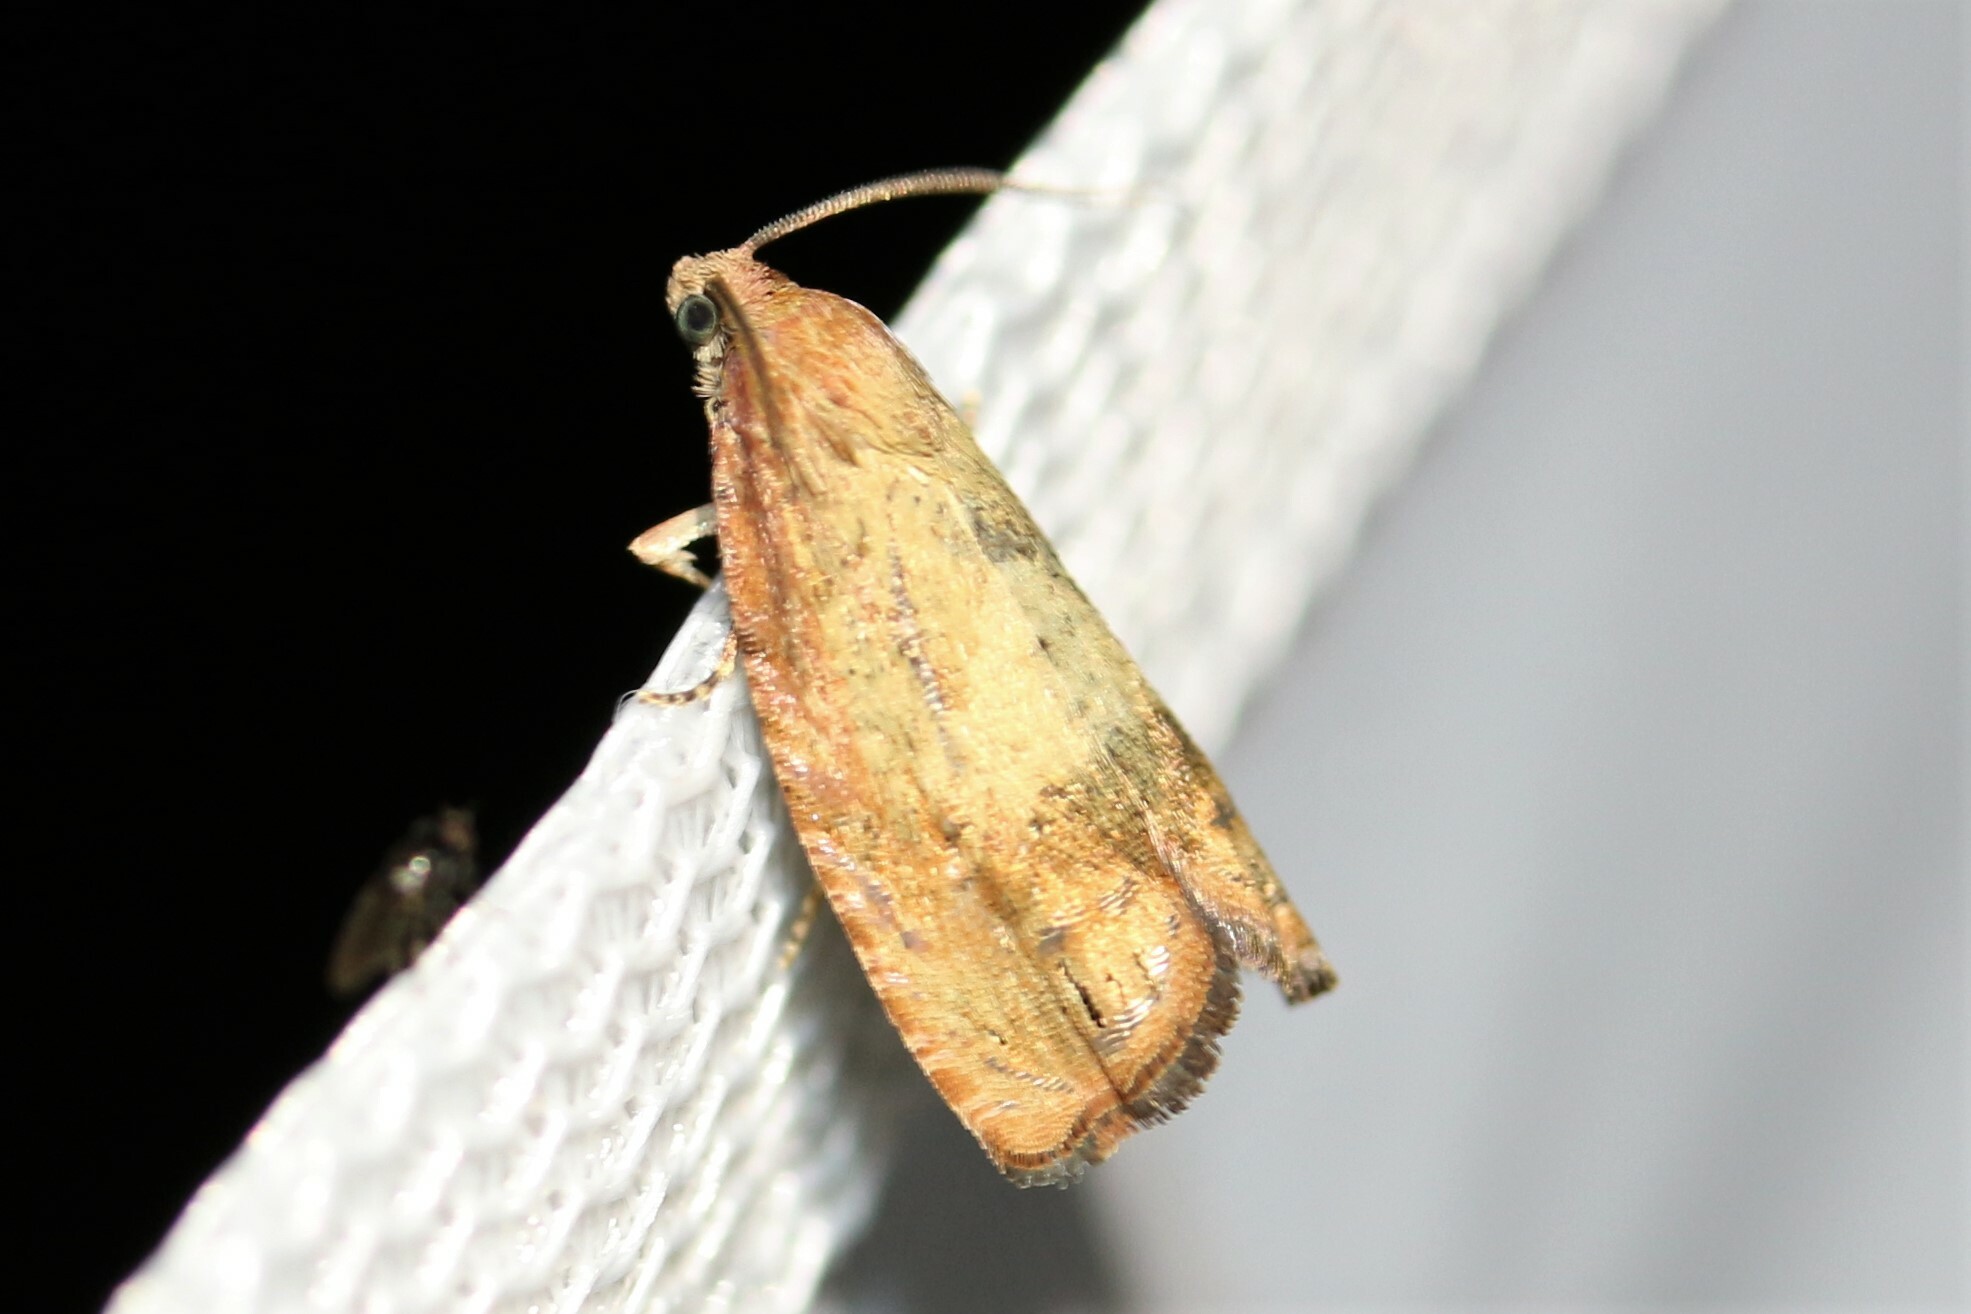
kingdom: Animalia
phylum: Arthropoda
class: Insecta
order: Lepidoptera
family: Tortricidae
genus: Cydia
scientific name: Cydia amplana
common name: Vagrant piercer
